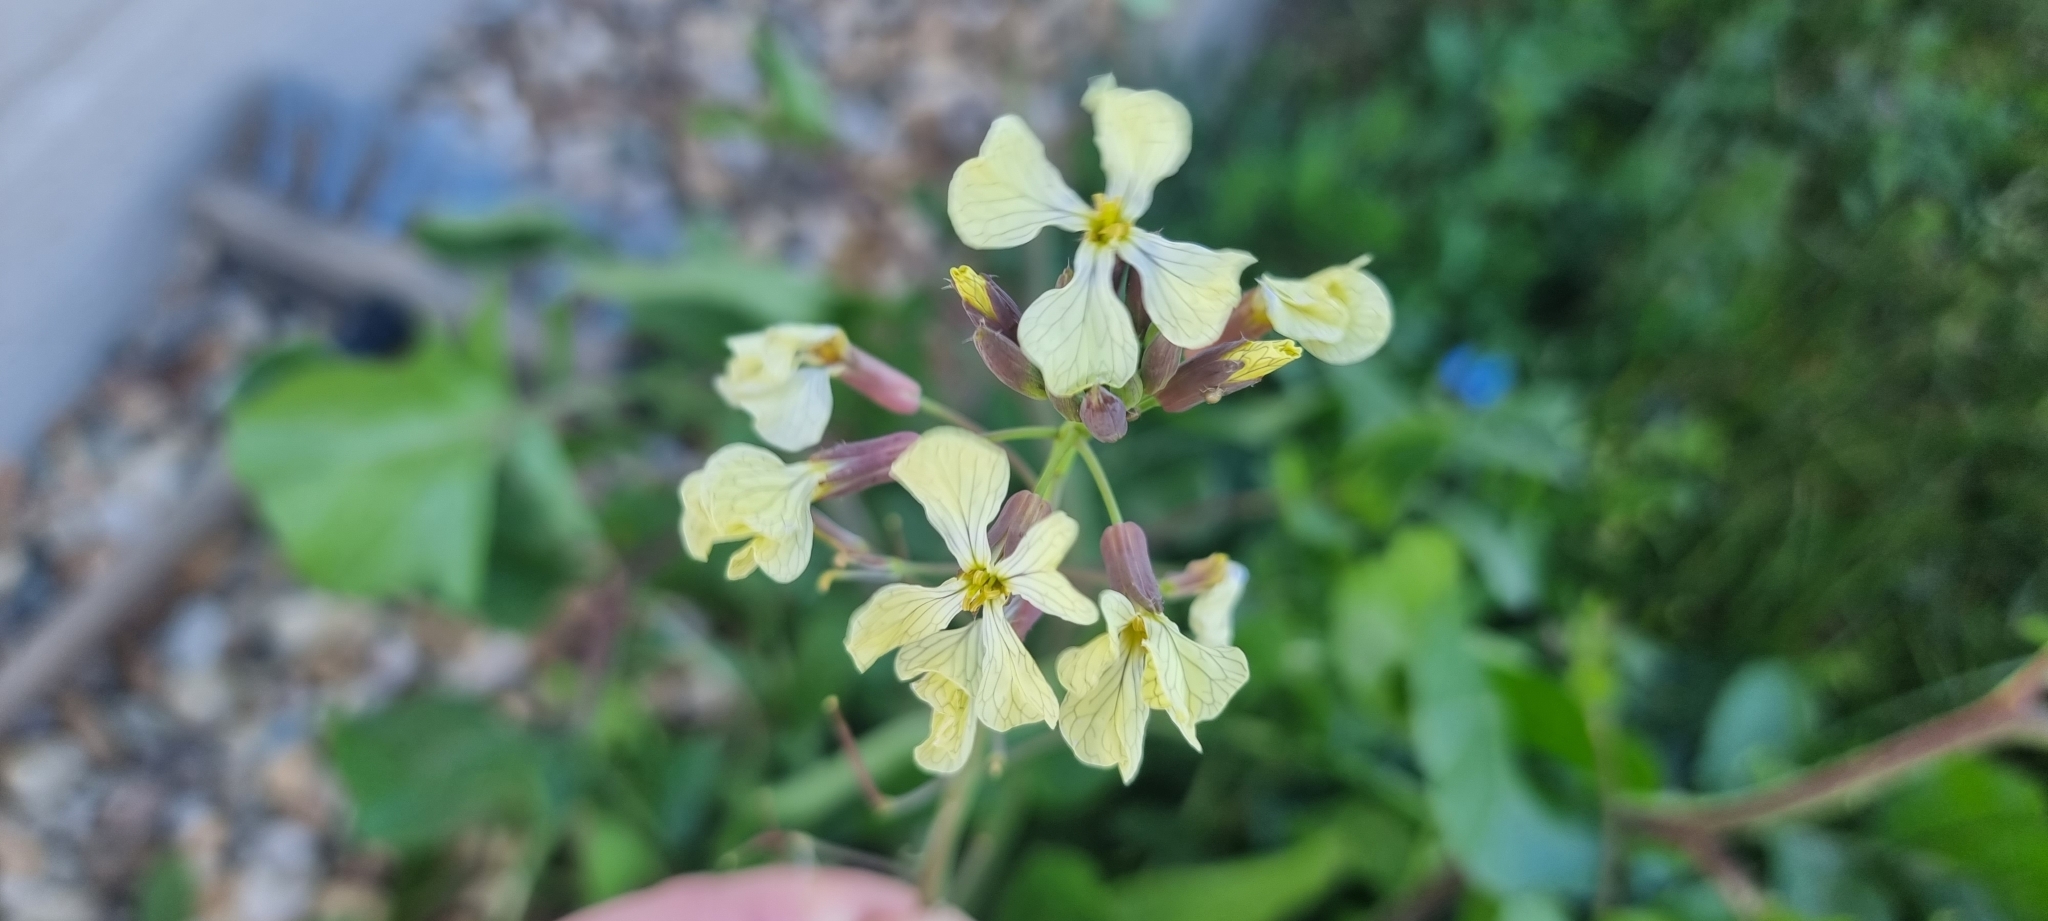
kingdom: Plantae
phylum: Tracheophyta
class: Magnoliopsida
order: Brassicales
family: Brassicaceae
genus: Raphanus
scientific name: Raphanus raphanistrum
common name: Wild radish
